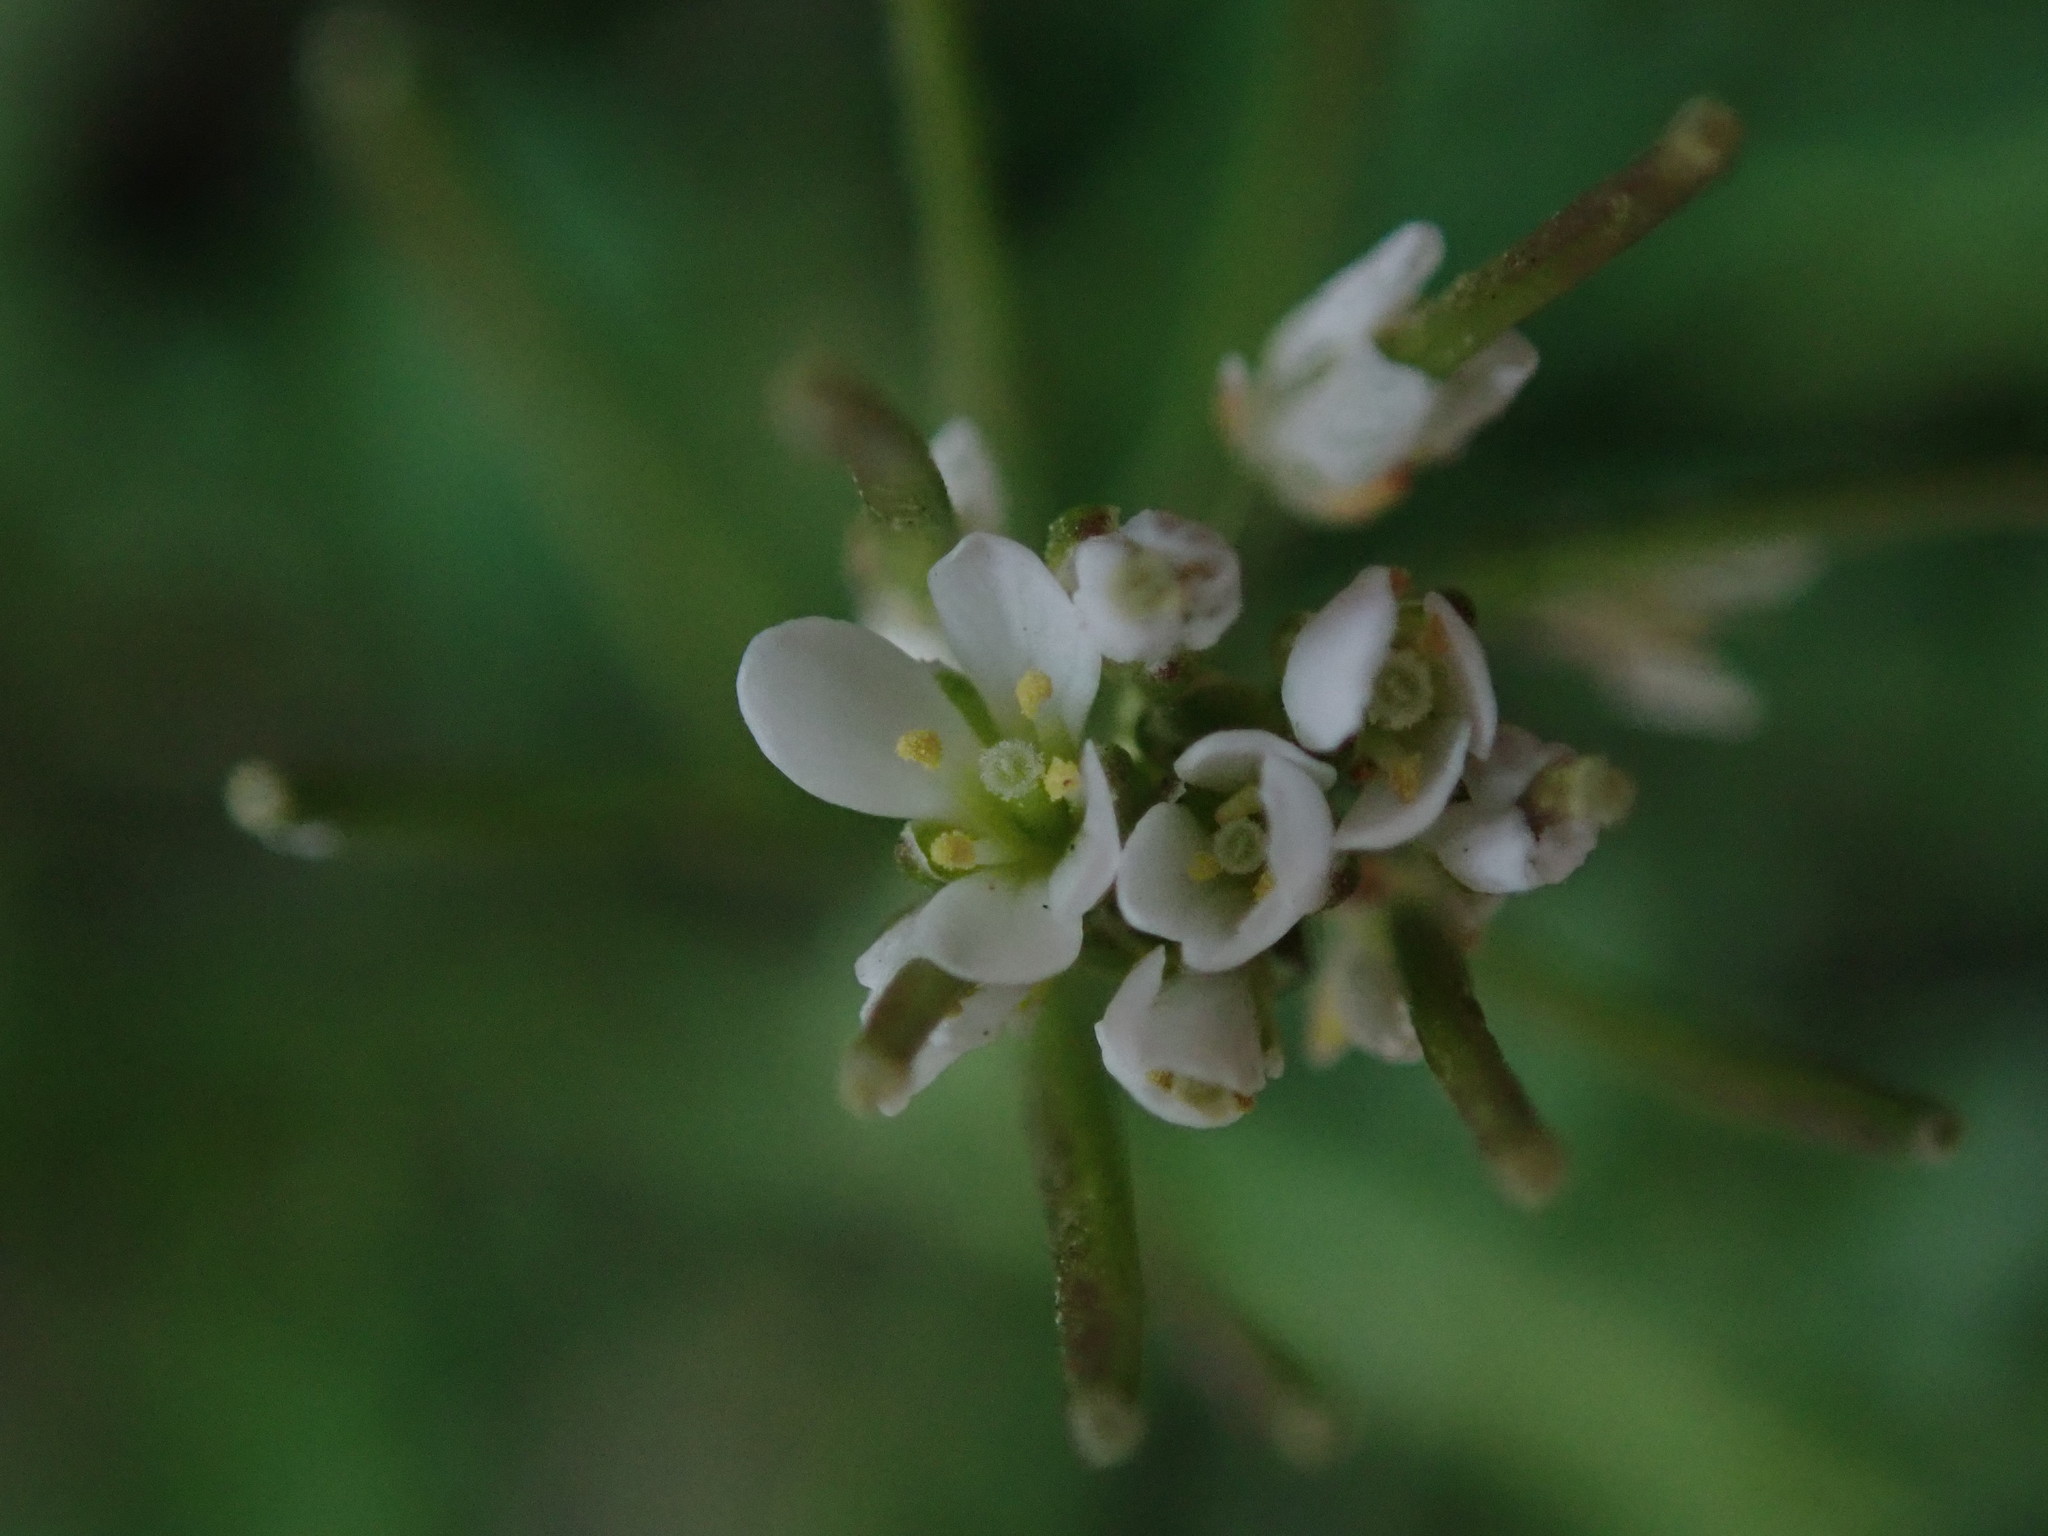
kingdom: Plantae
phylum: Tracheophyta
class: Magnoliopsida
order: Brassicales
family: Brassicaceae
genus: Cardamine
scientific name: Cardamine hirsuta
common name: Hairy bittercress
